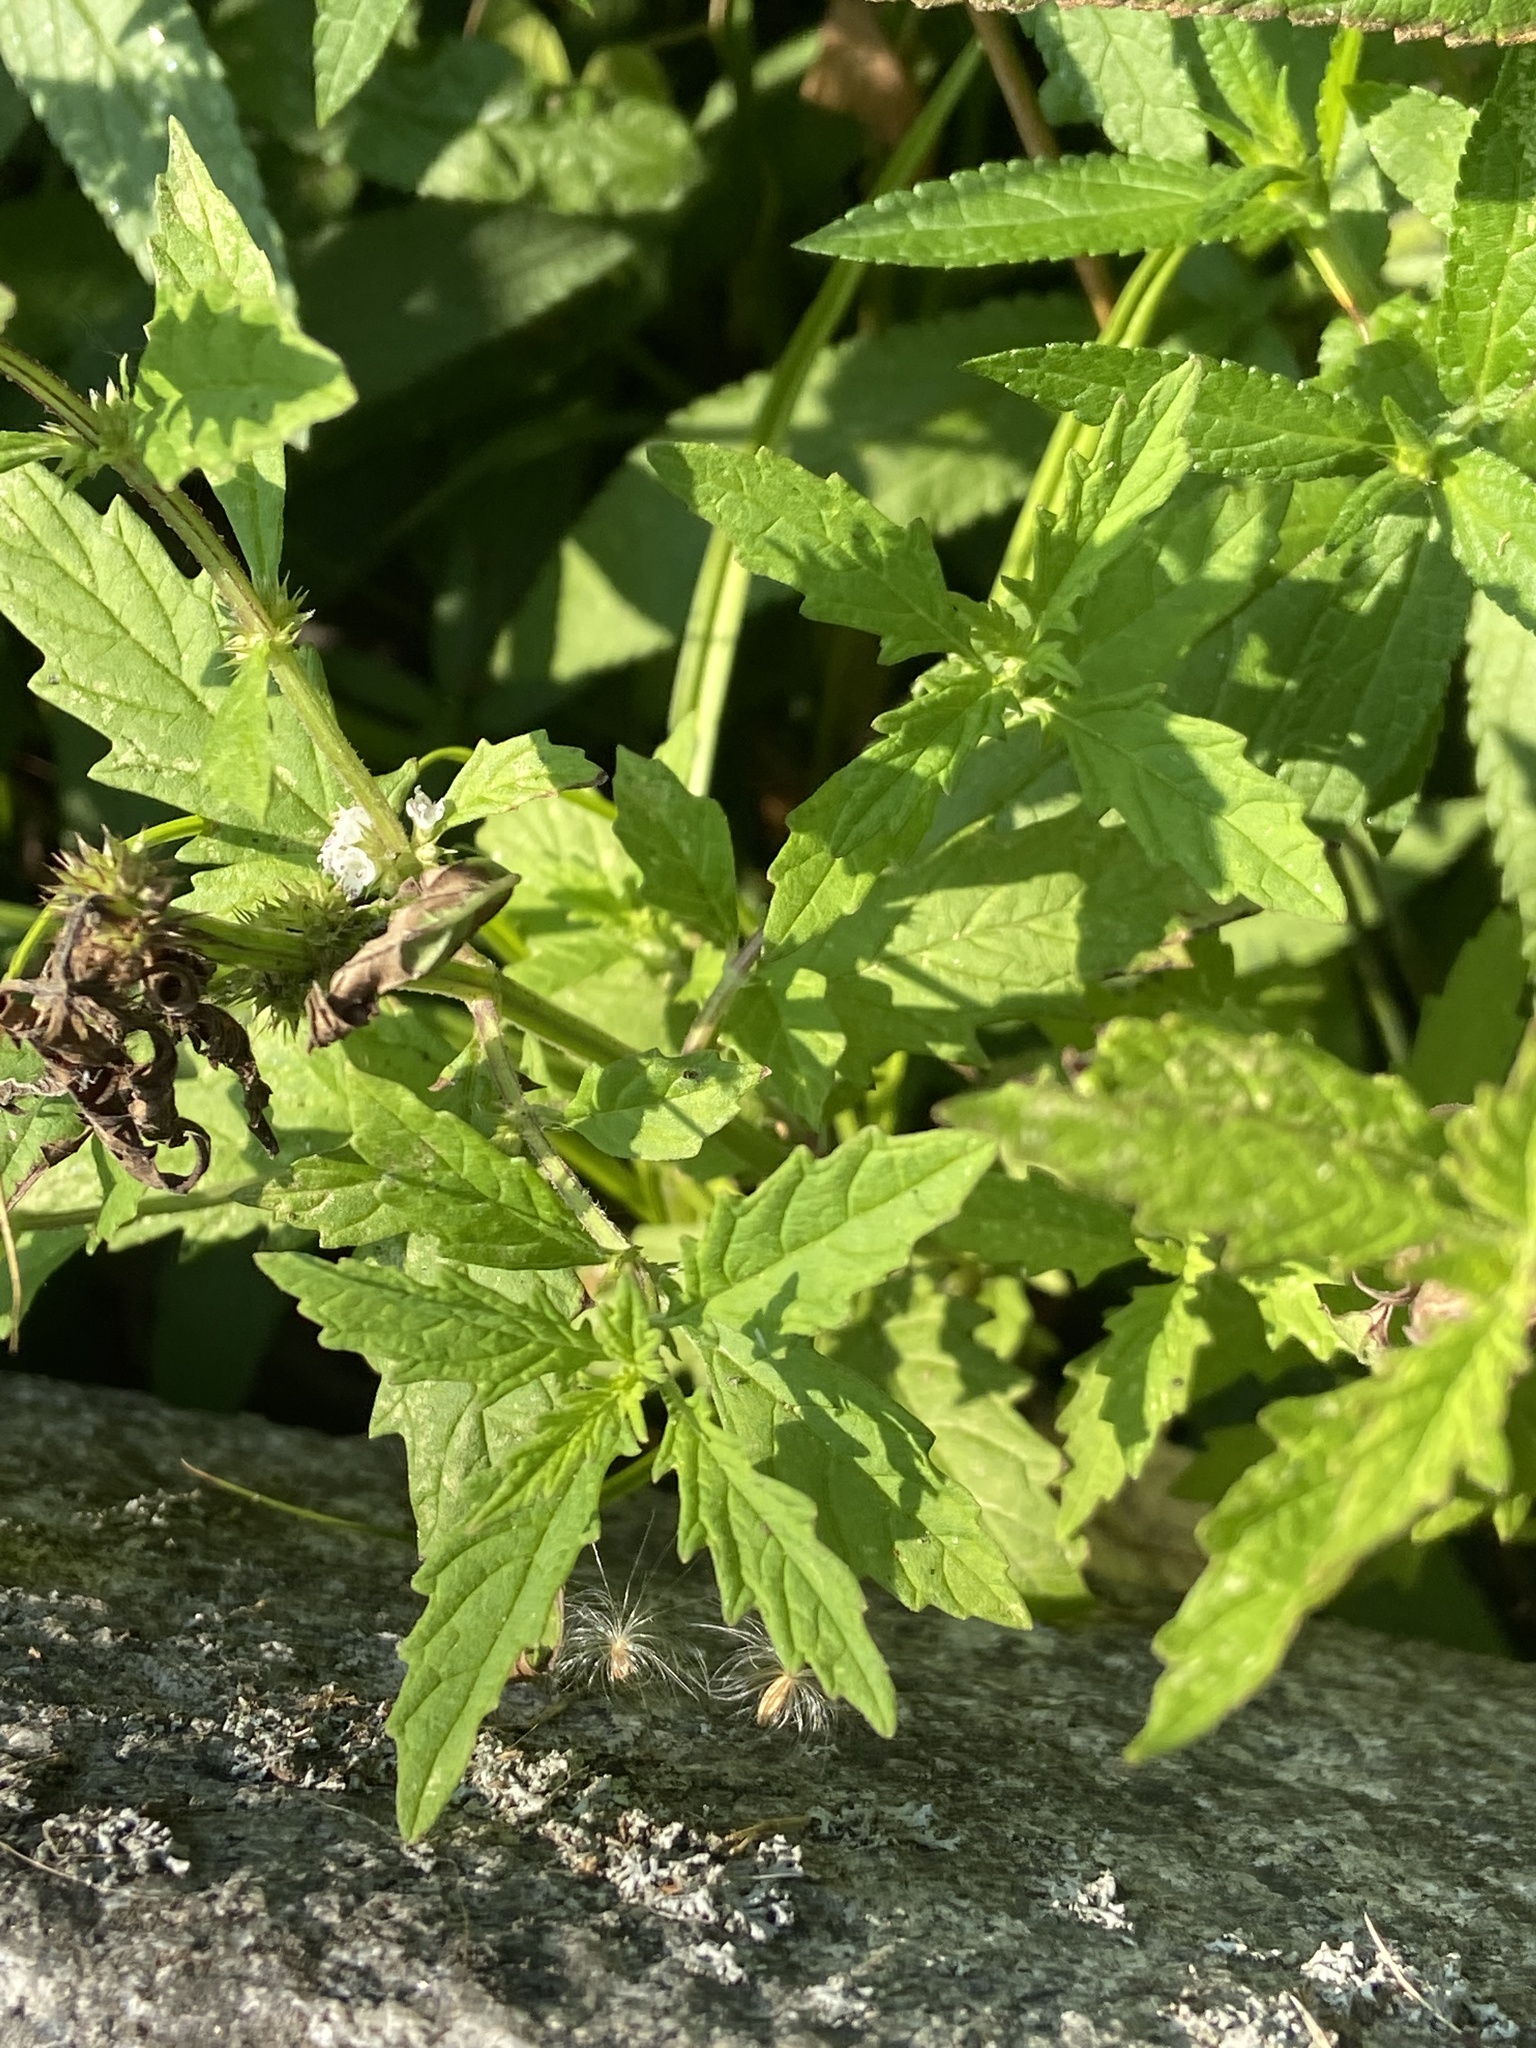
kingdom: Plantae
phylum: Tracheophyta
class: Magnoliopsida
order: Lamiales
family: Lamiaceae
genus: Lycopus
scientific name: Lycopus europaeus
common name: European bugleweed
